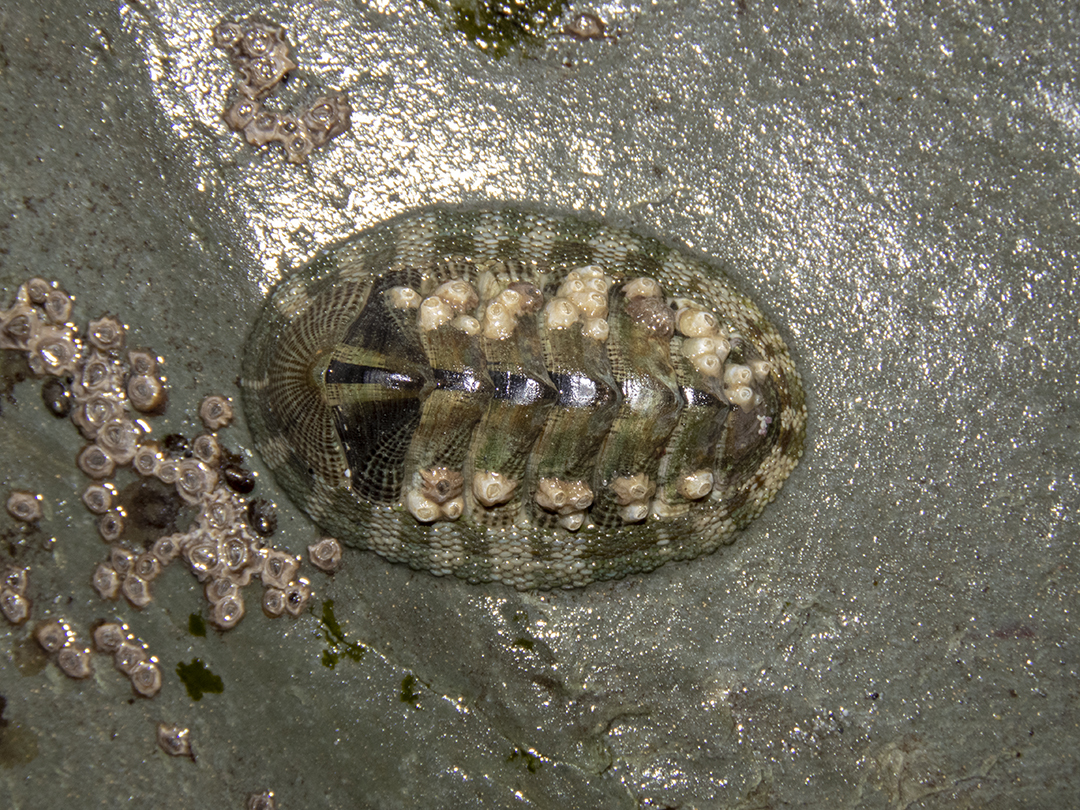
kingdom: Animalia
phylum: Mollusca
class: Polyplacophora
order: Chitonida
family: Chitonidae
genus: Sypharochiton
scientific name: Sypharochiton pelliserpentis
